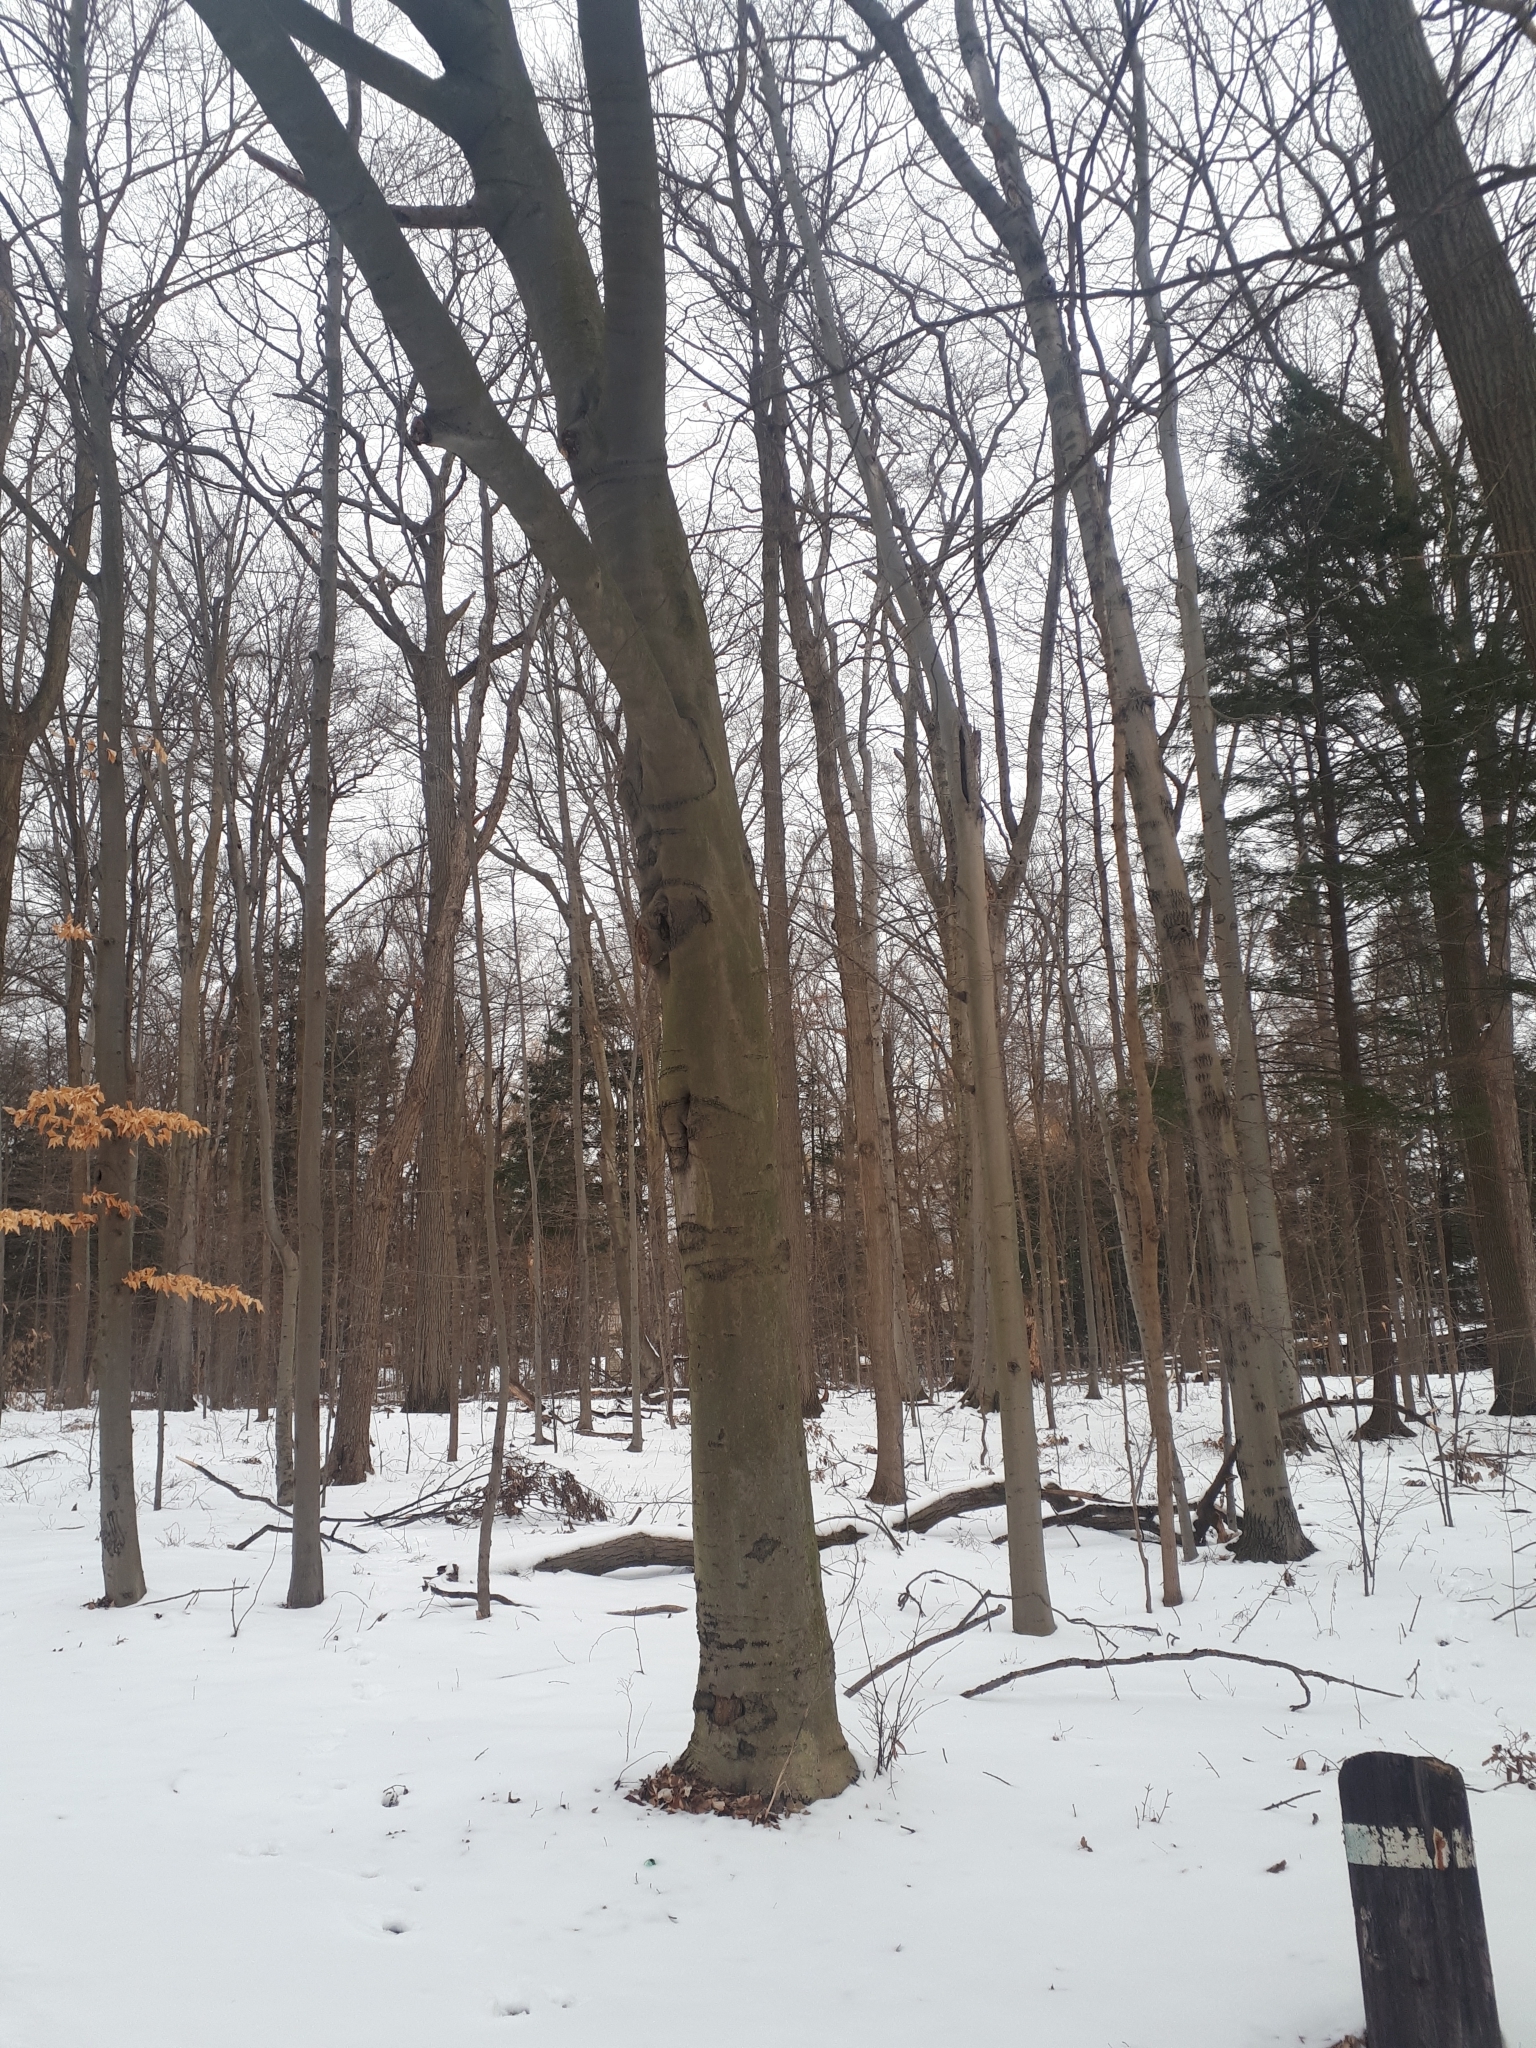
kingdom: Plantae
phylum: Tracheophyta
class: Magnoliopsida
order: Fagales
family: Fagaceae
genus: Fagus
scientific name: Fagus grandifolia
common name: American beech
